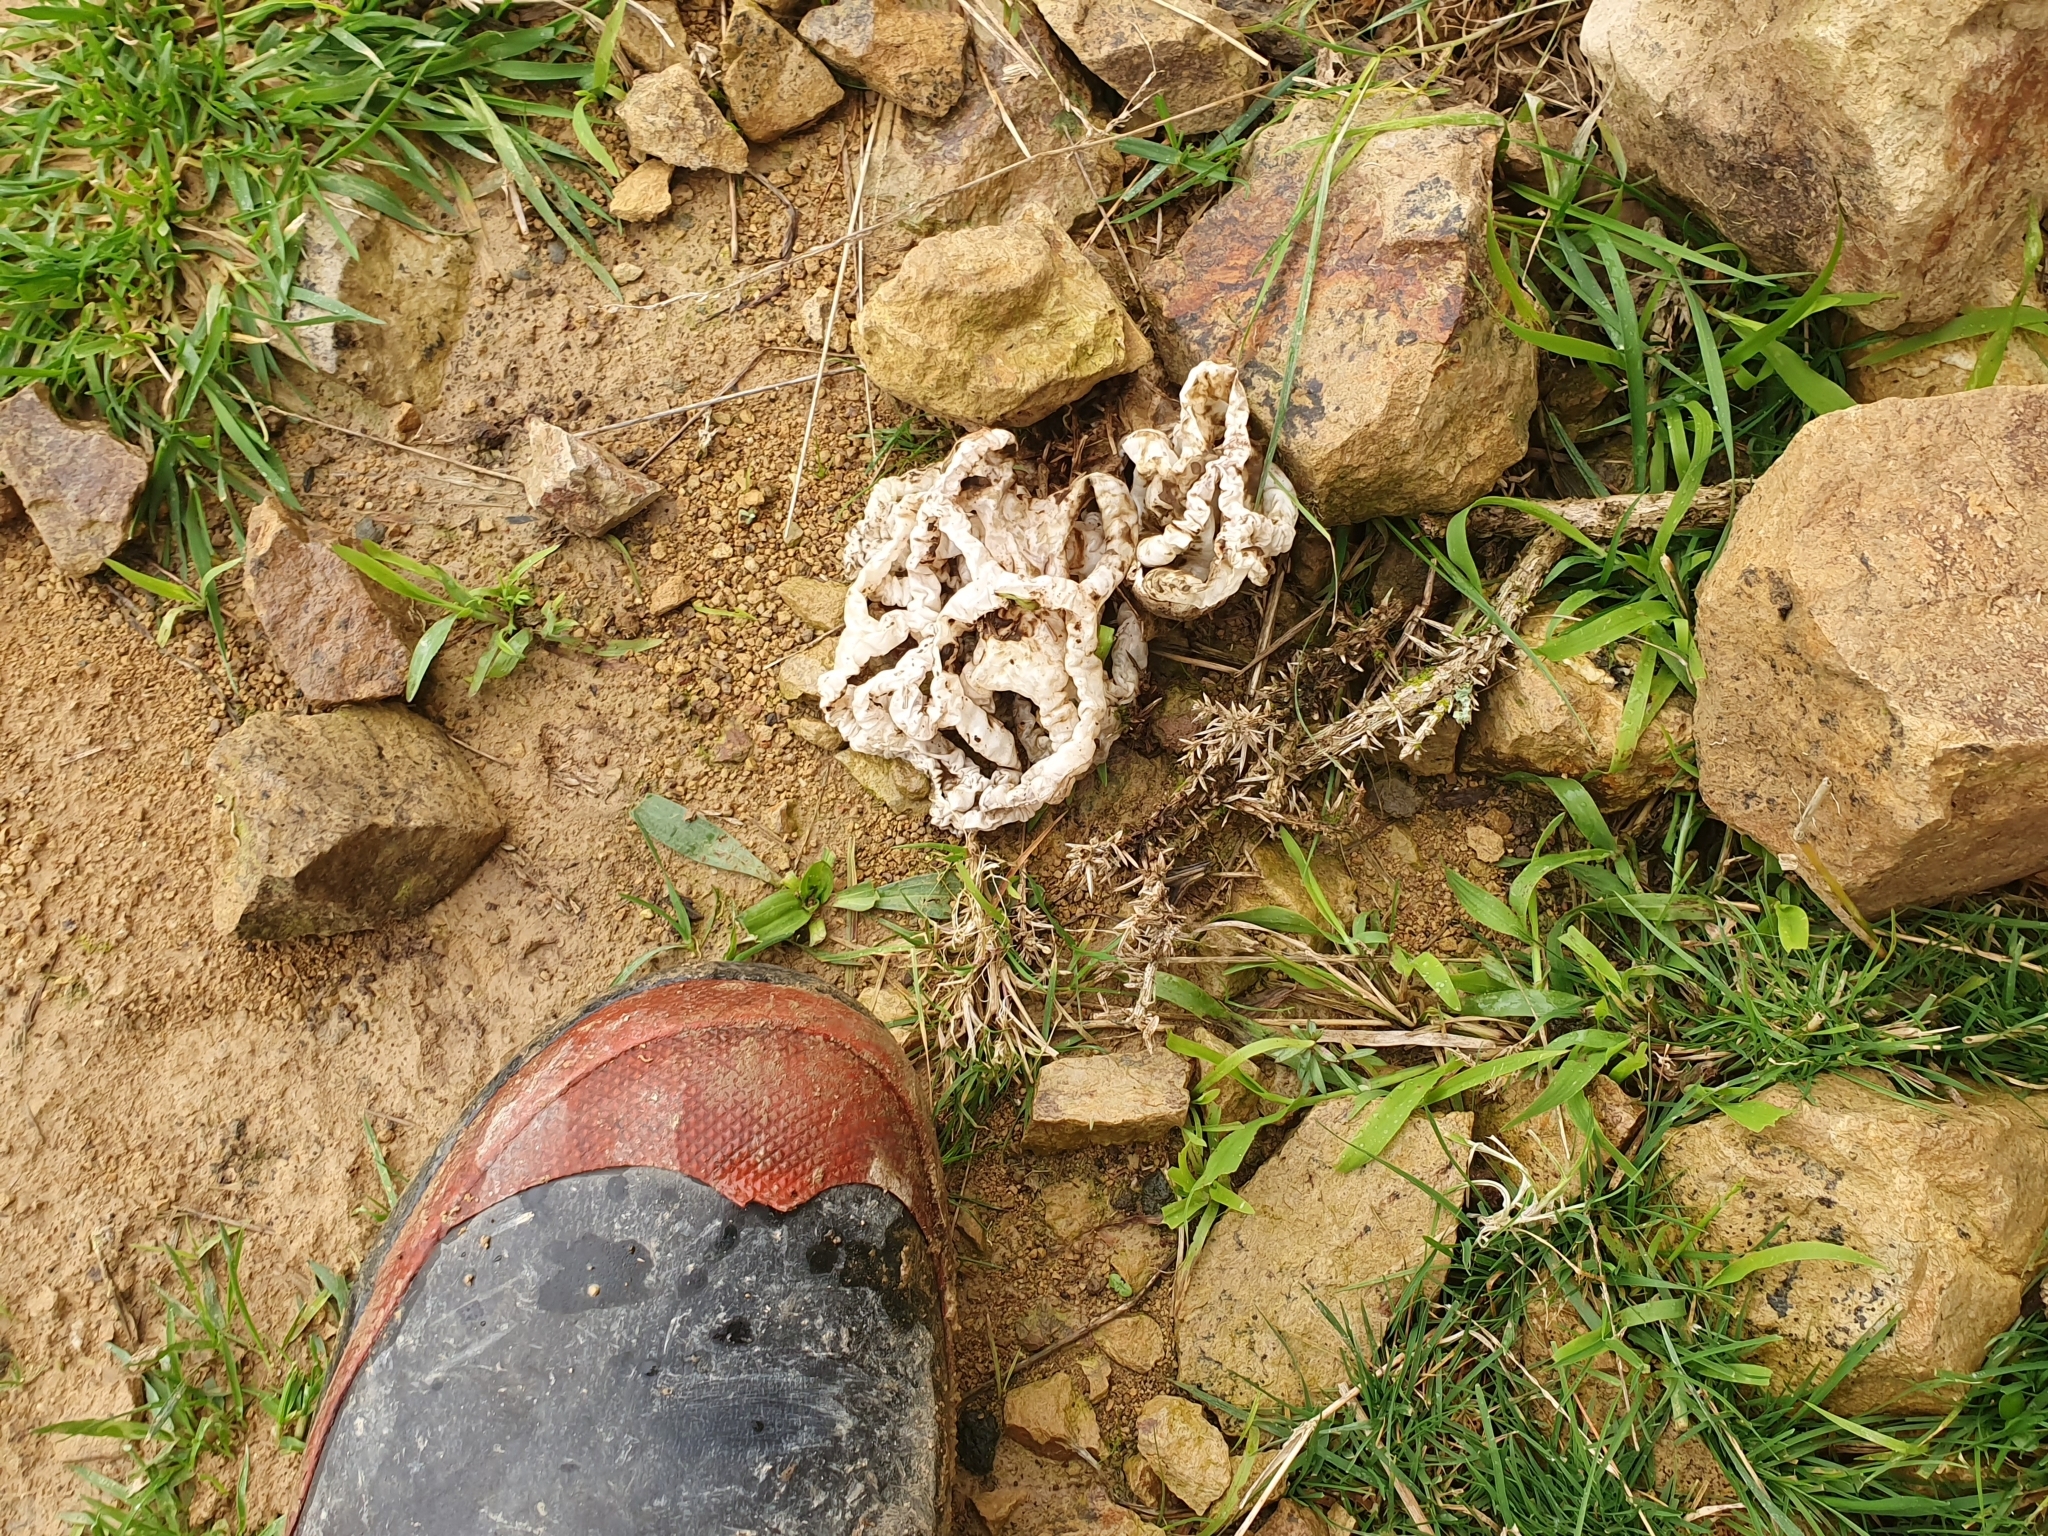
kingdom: Fungi
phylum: Basidiomycota
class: Agaricomycetes
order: Phallales
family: Phallaceae
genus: Ileodictyon
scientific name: Ileodictyon cibarium
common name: Basket fungus
